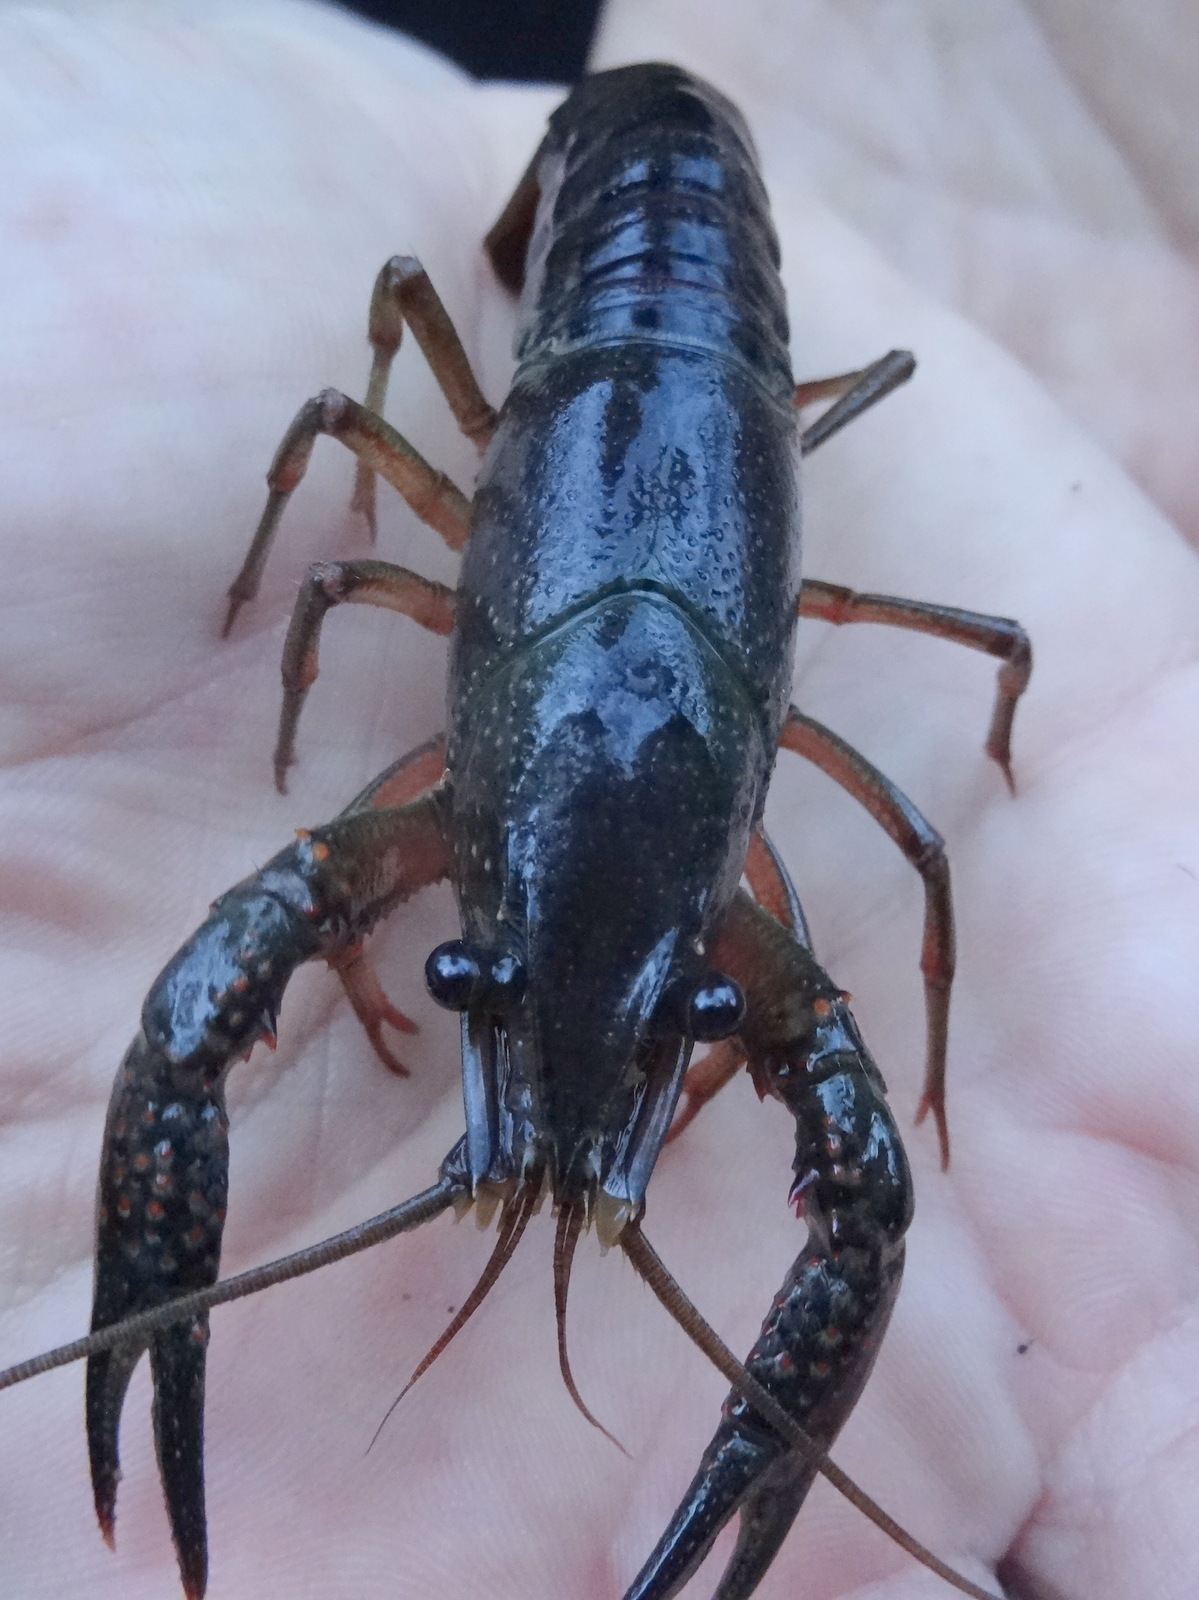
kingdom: Animalia
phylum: Arthropoda
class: Malacostraca
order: Decapoda
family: Cambaridae
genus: Procambarus
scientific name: Procambarus clarkii
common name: Red swamp crayfish
